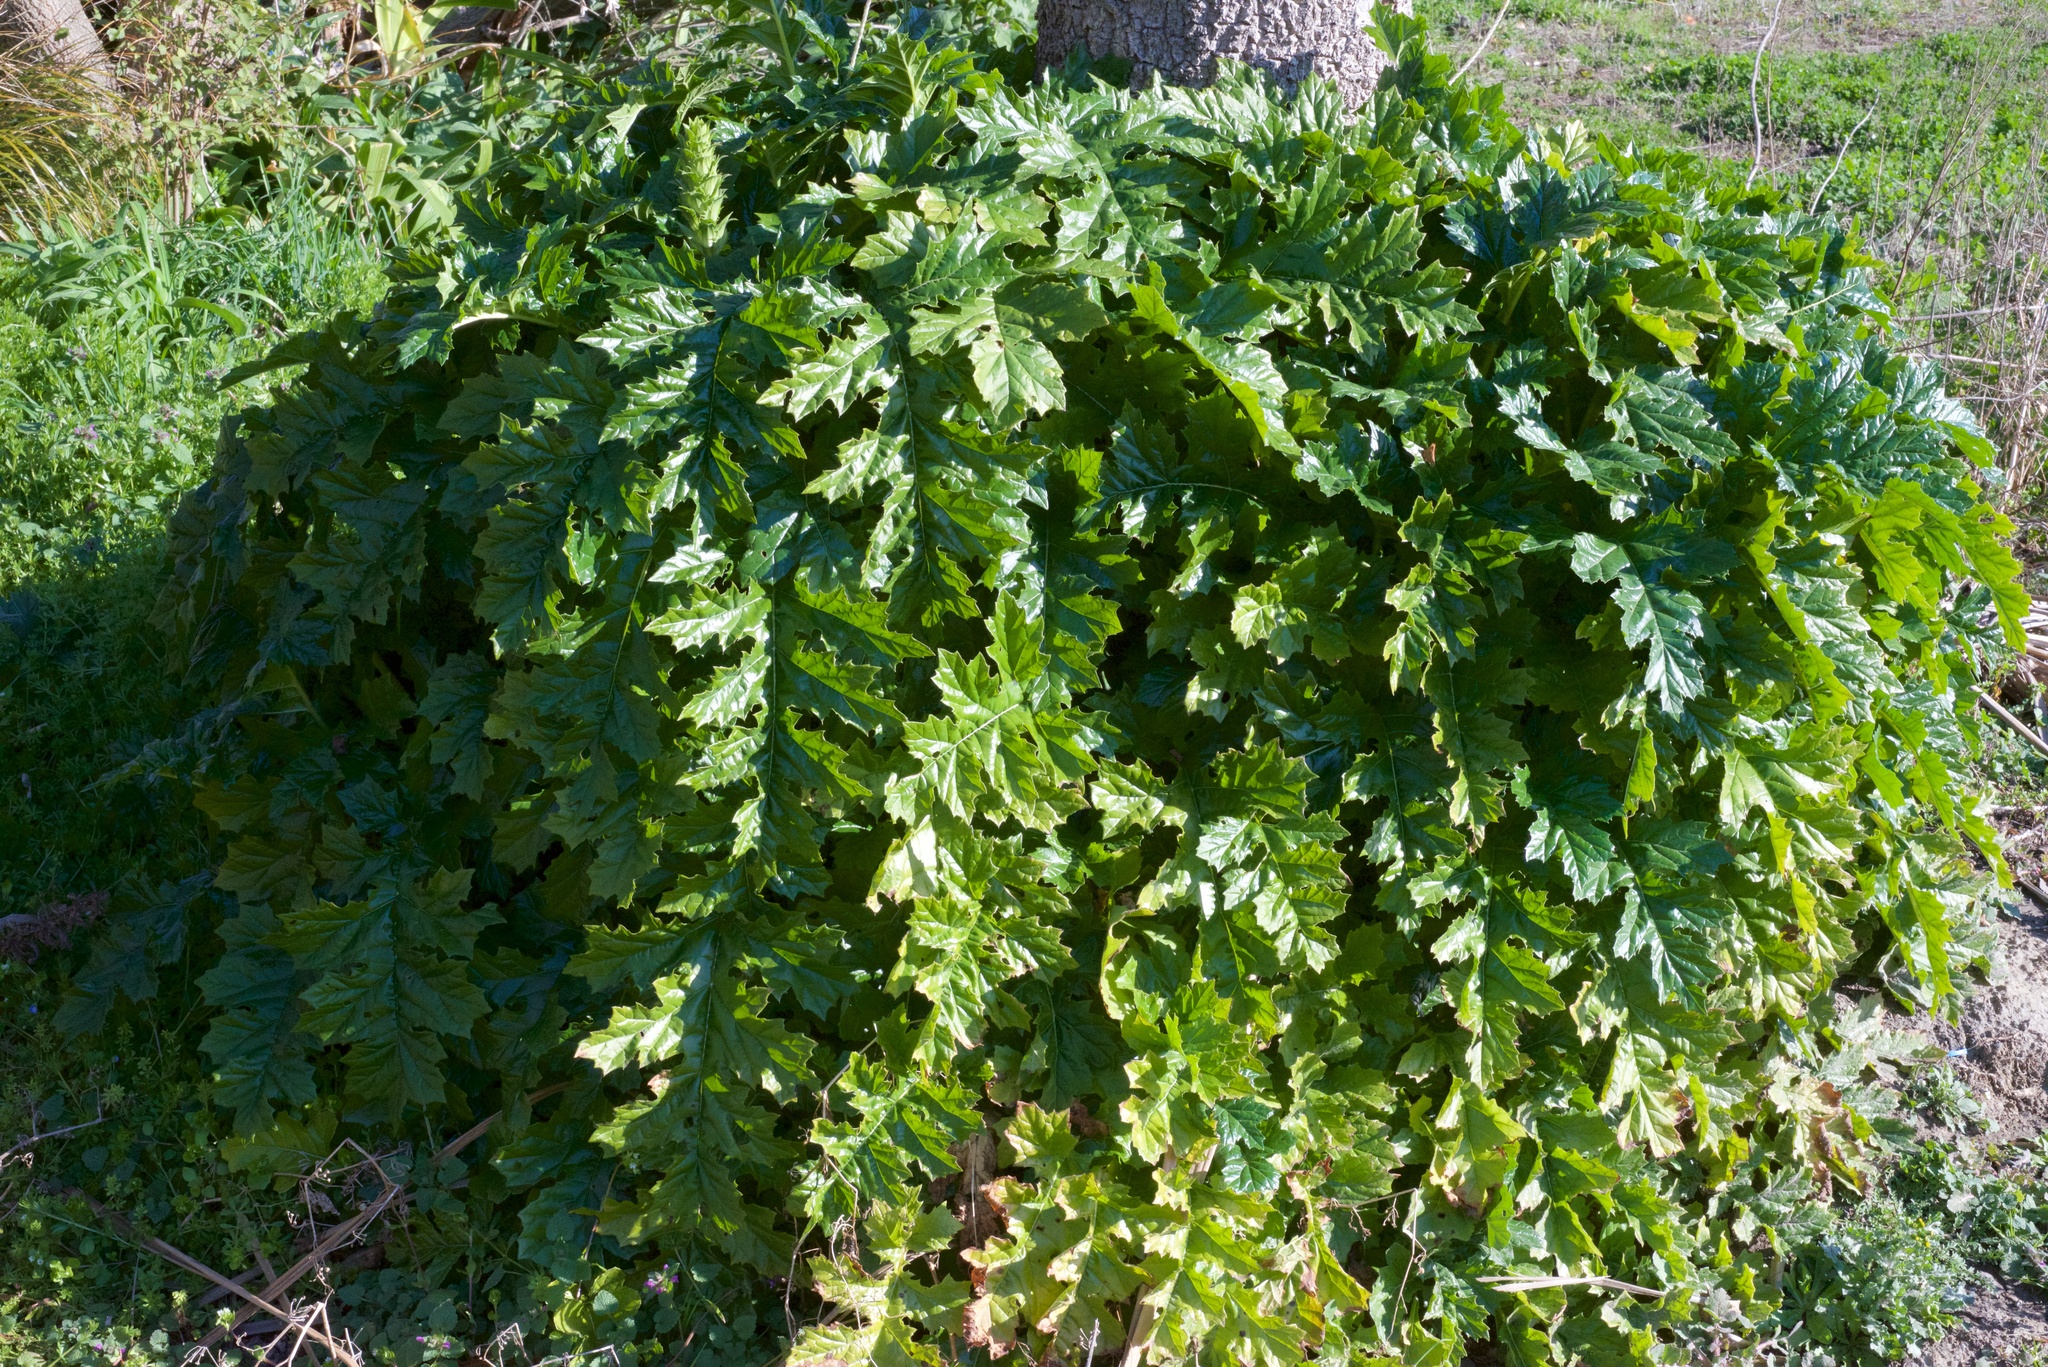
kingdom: Plantae
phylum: Tracheophyta
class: Magnoliopsida
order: Lamiales
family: Acanthaceae
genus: Acanthus
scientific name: Acanthus mollis
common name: Bear's-breech
